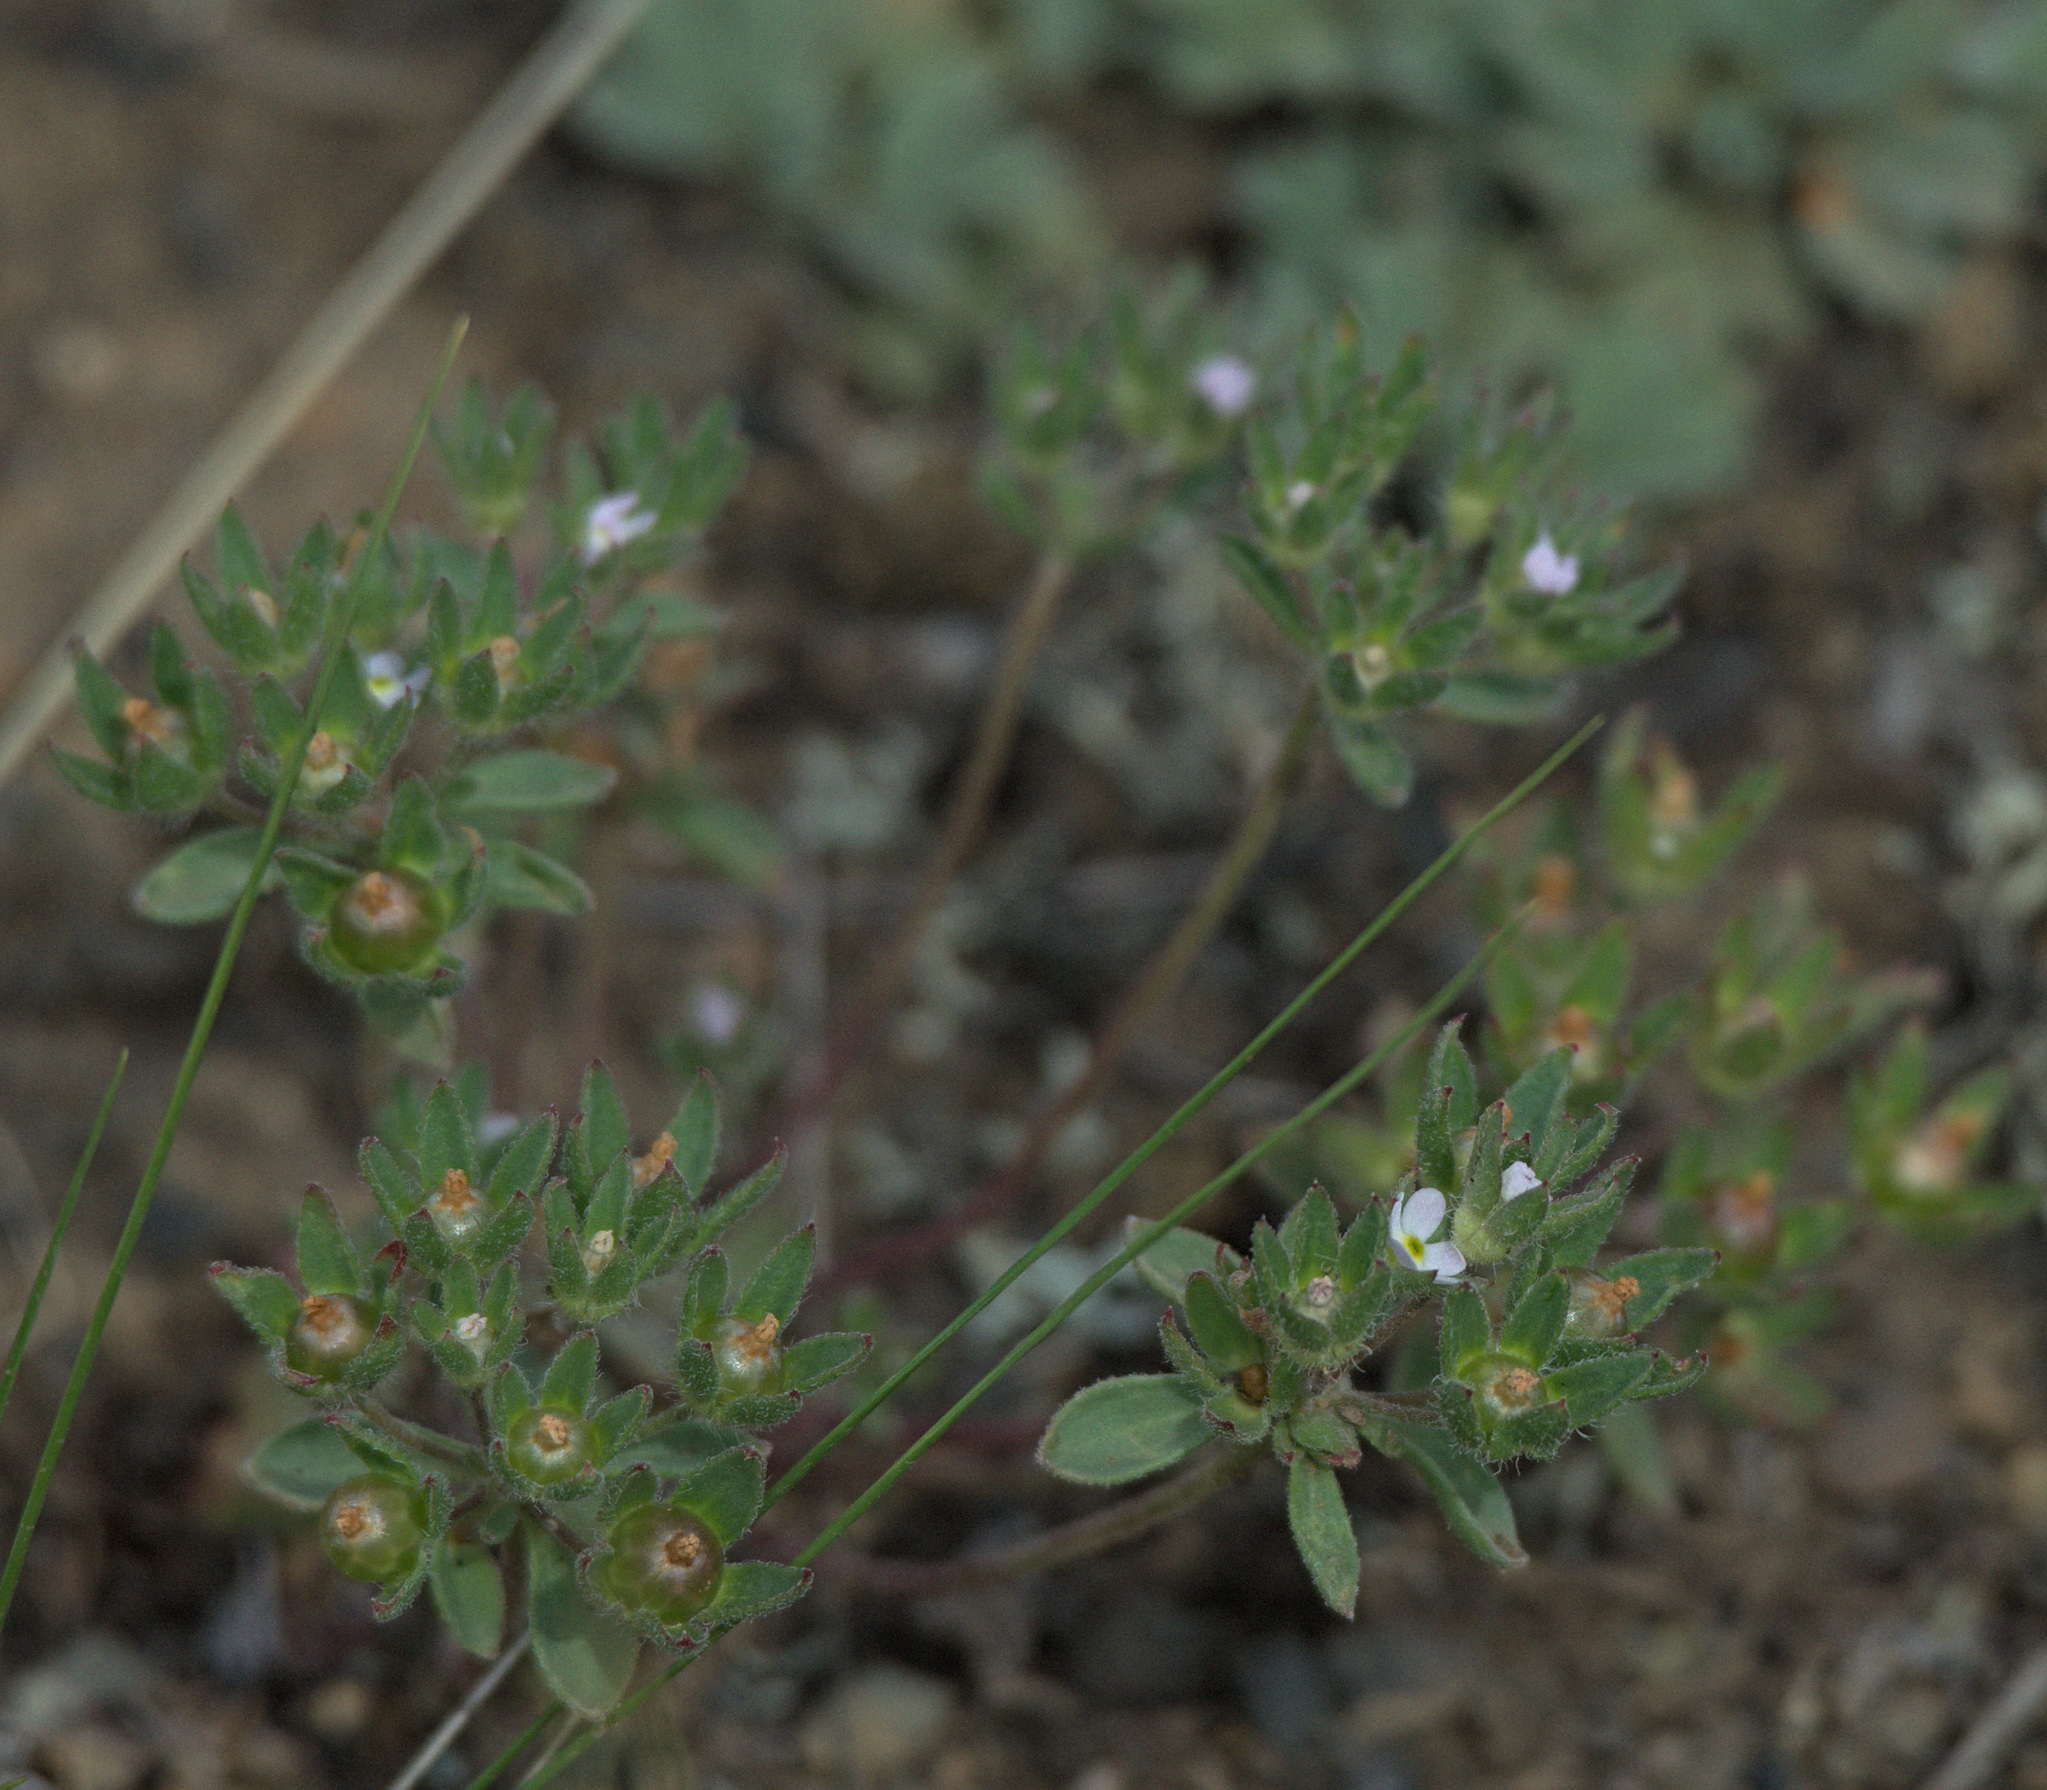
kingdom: Plantae
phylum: Tracheophyta
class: Magnoliopsida
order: Ericales
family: Primulaceae
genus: Androsace
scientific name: Androsace maxima
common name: Annual androsace
